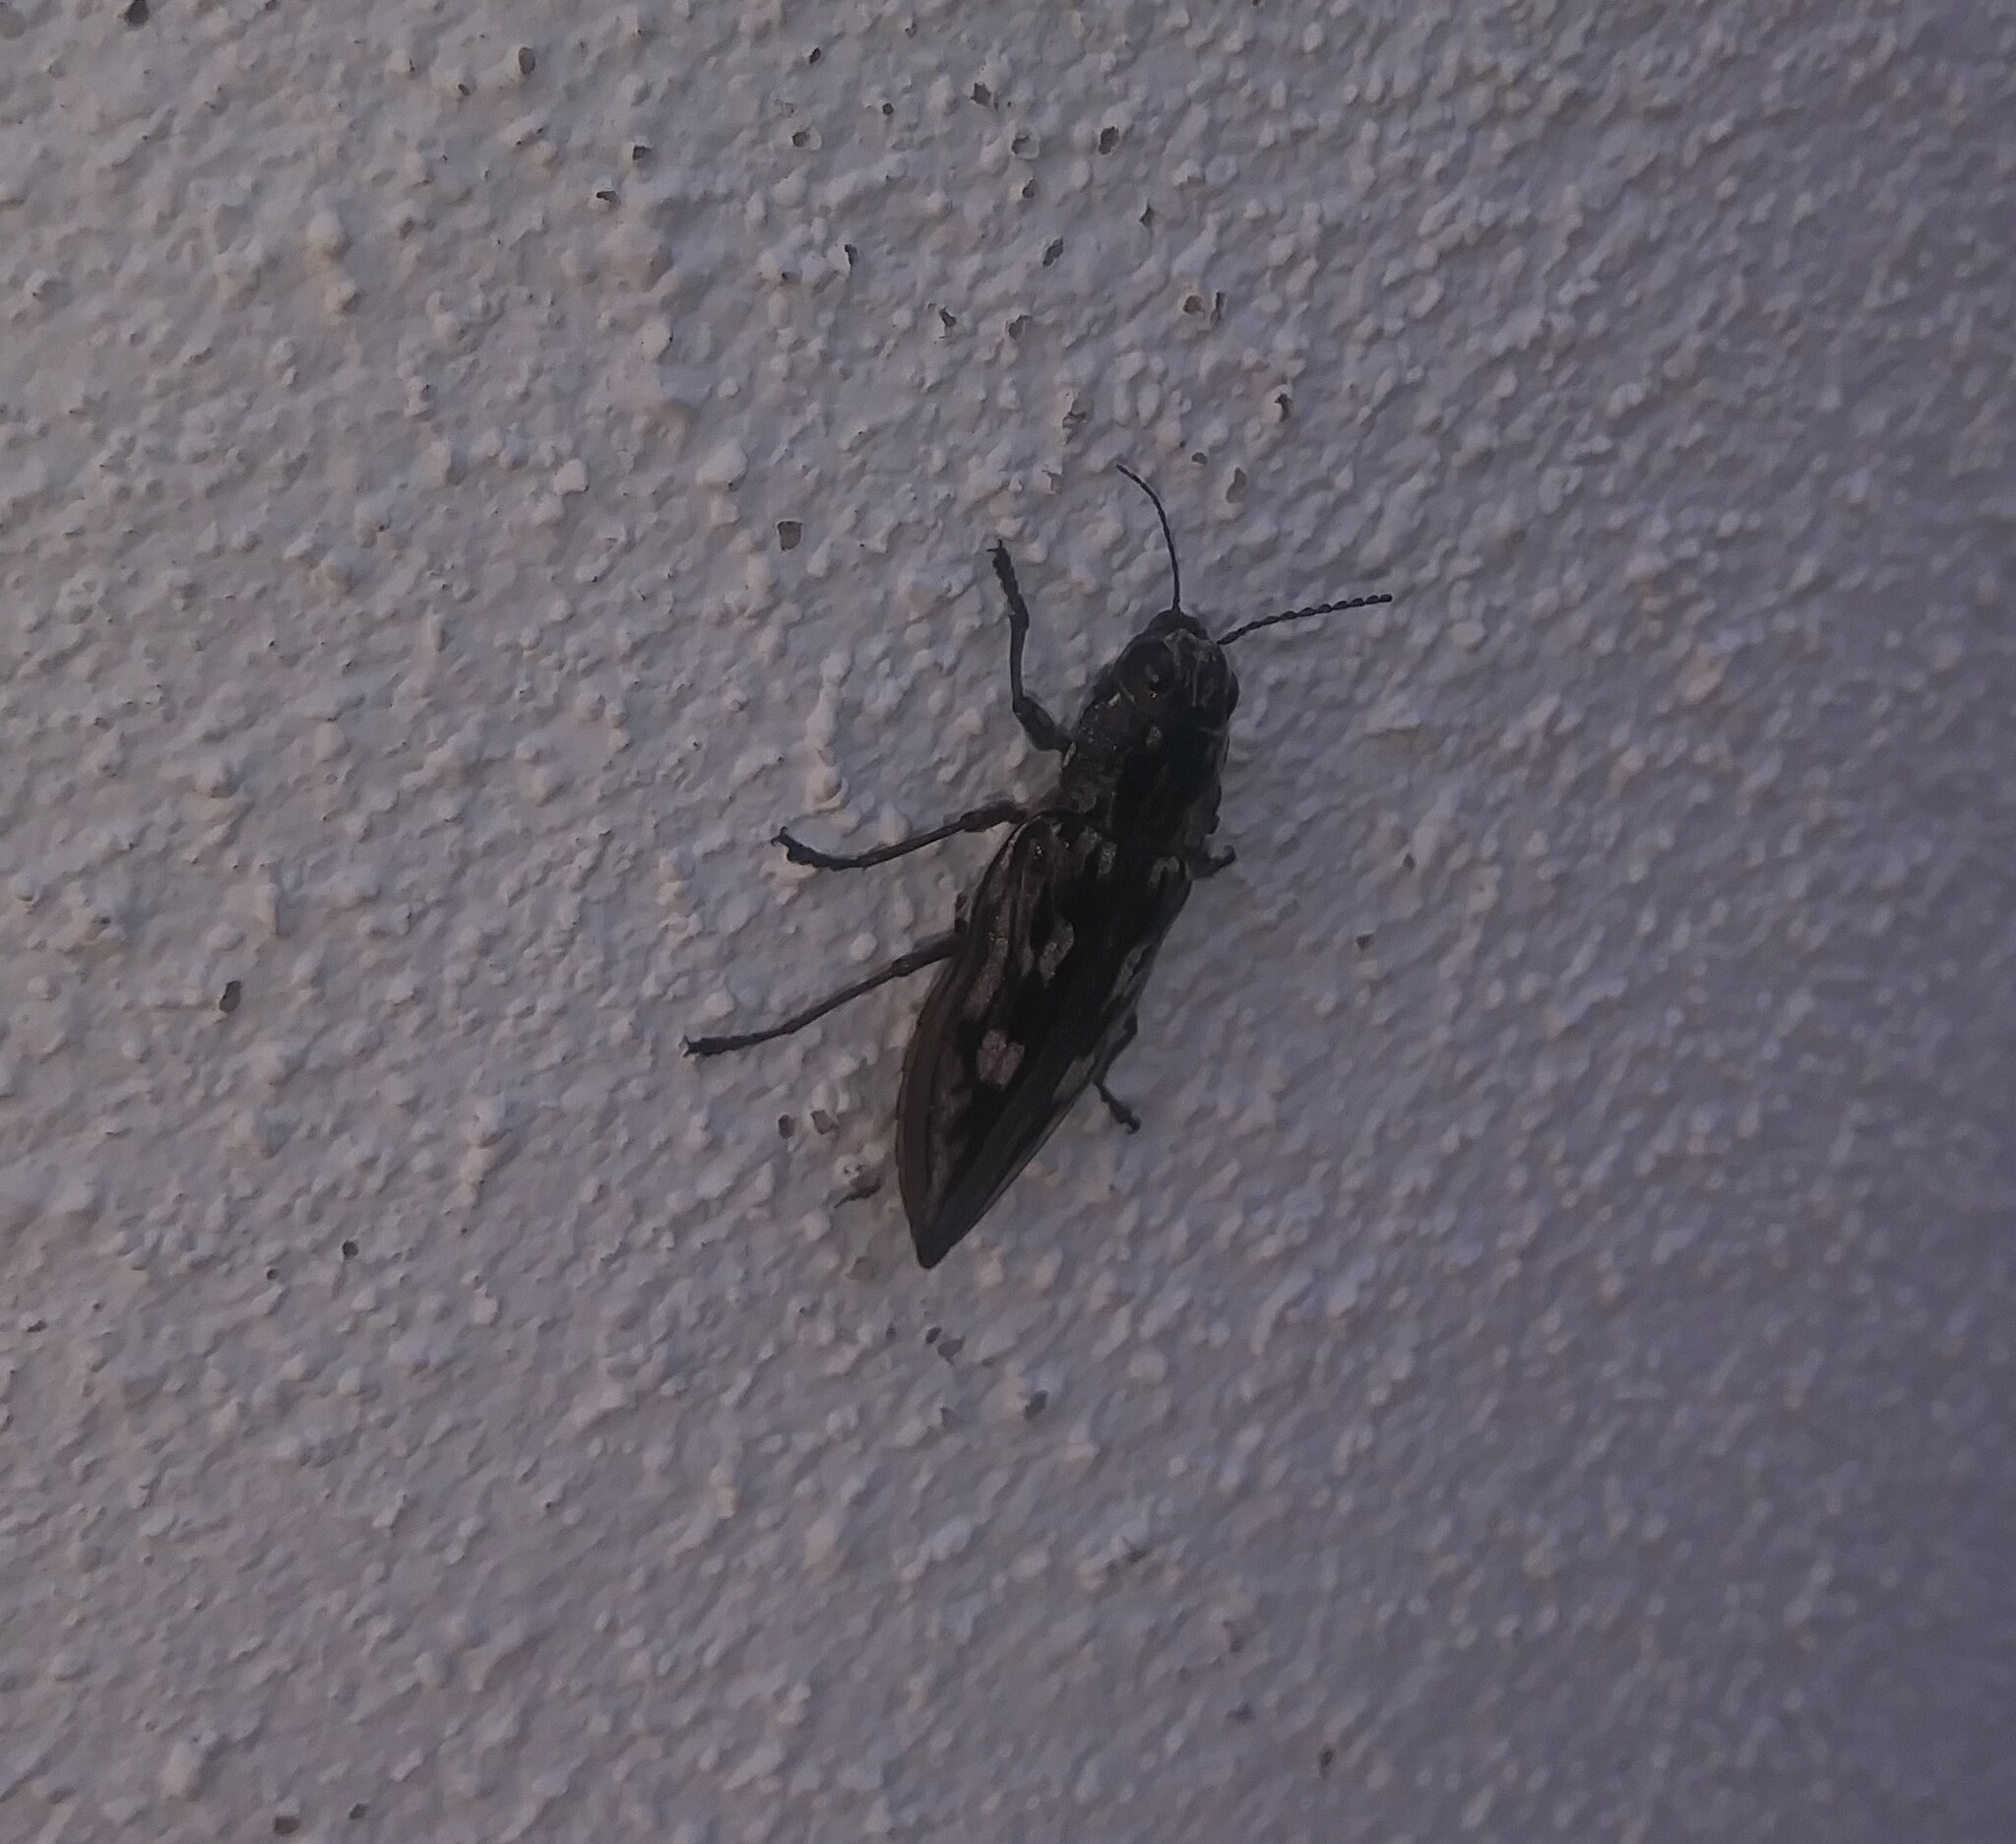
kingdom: Animalia
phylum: Arthropoda
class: Insecta
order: Coleoptera
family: Buprestidae
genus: Chalcophora
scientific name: Chalcophora virginiensis
